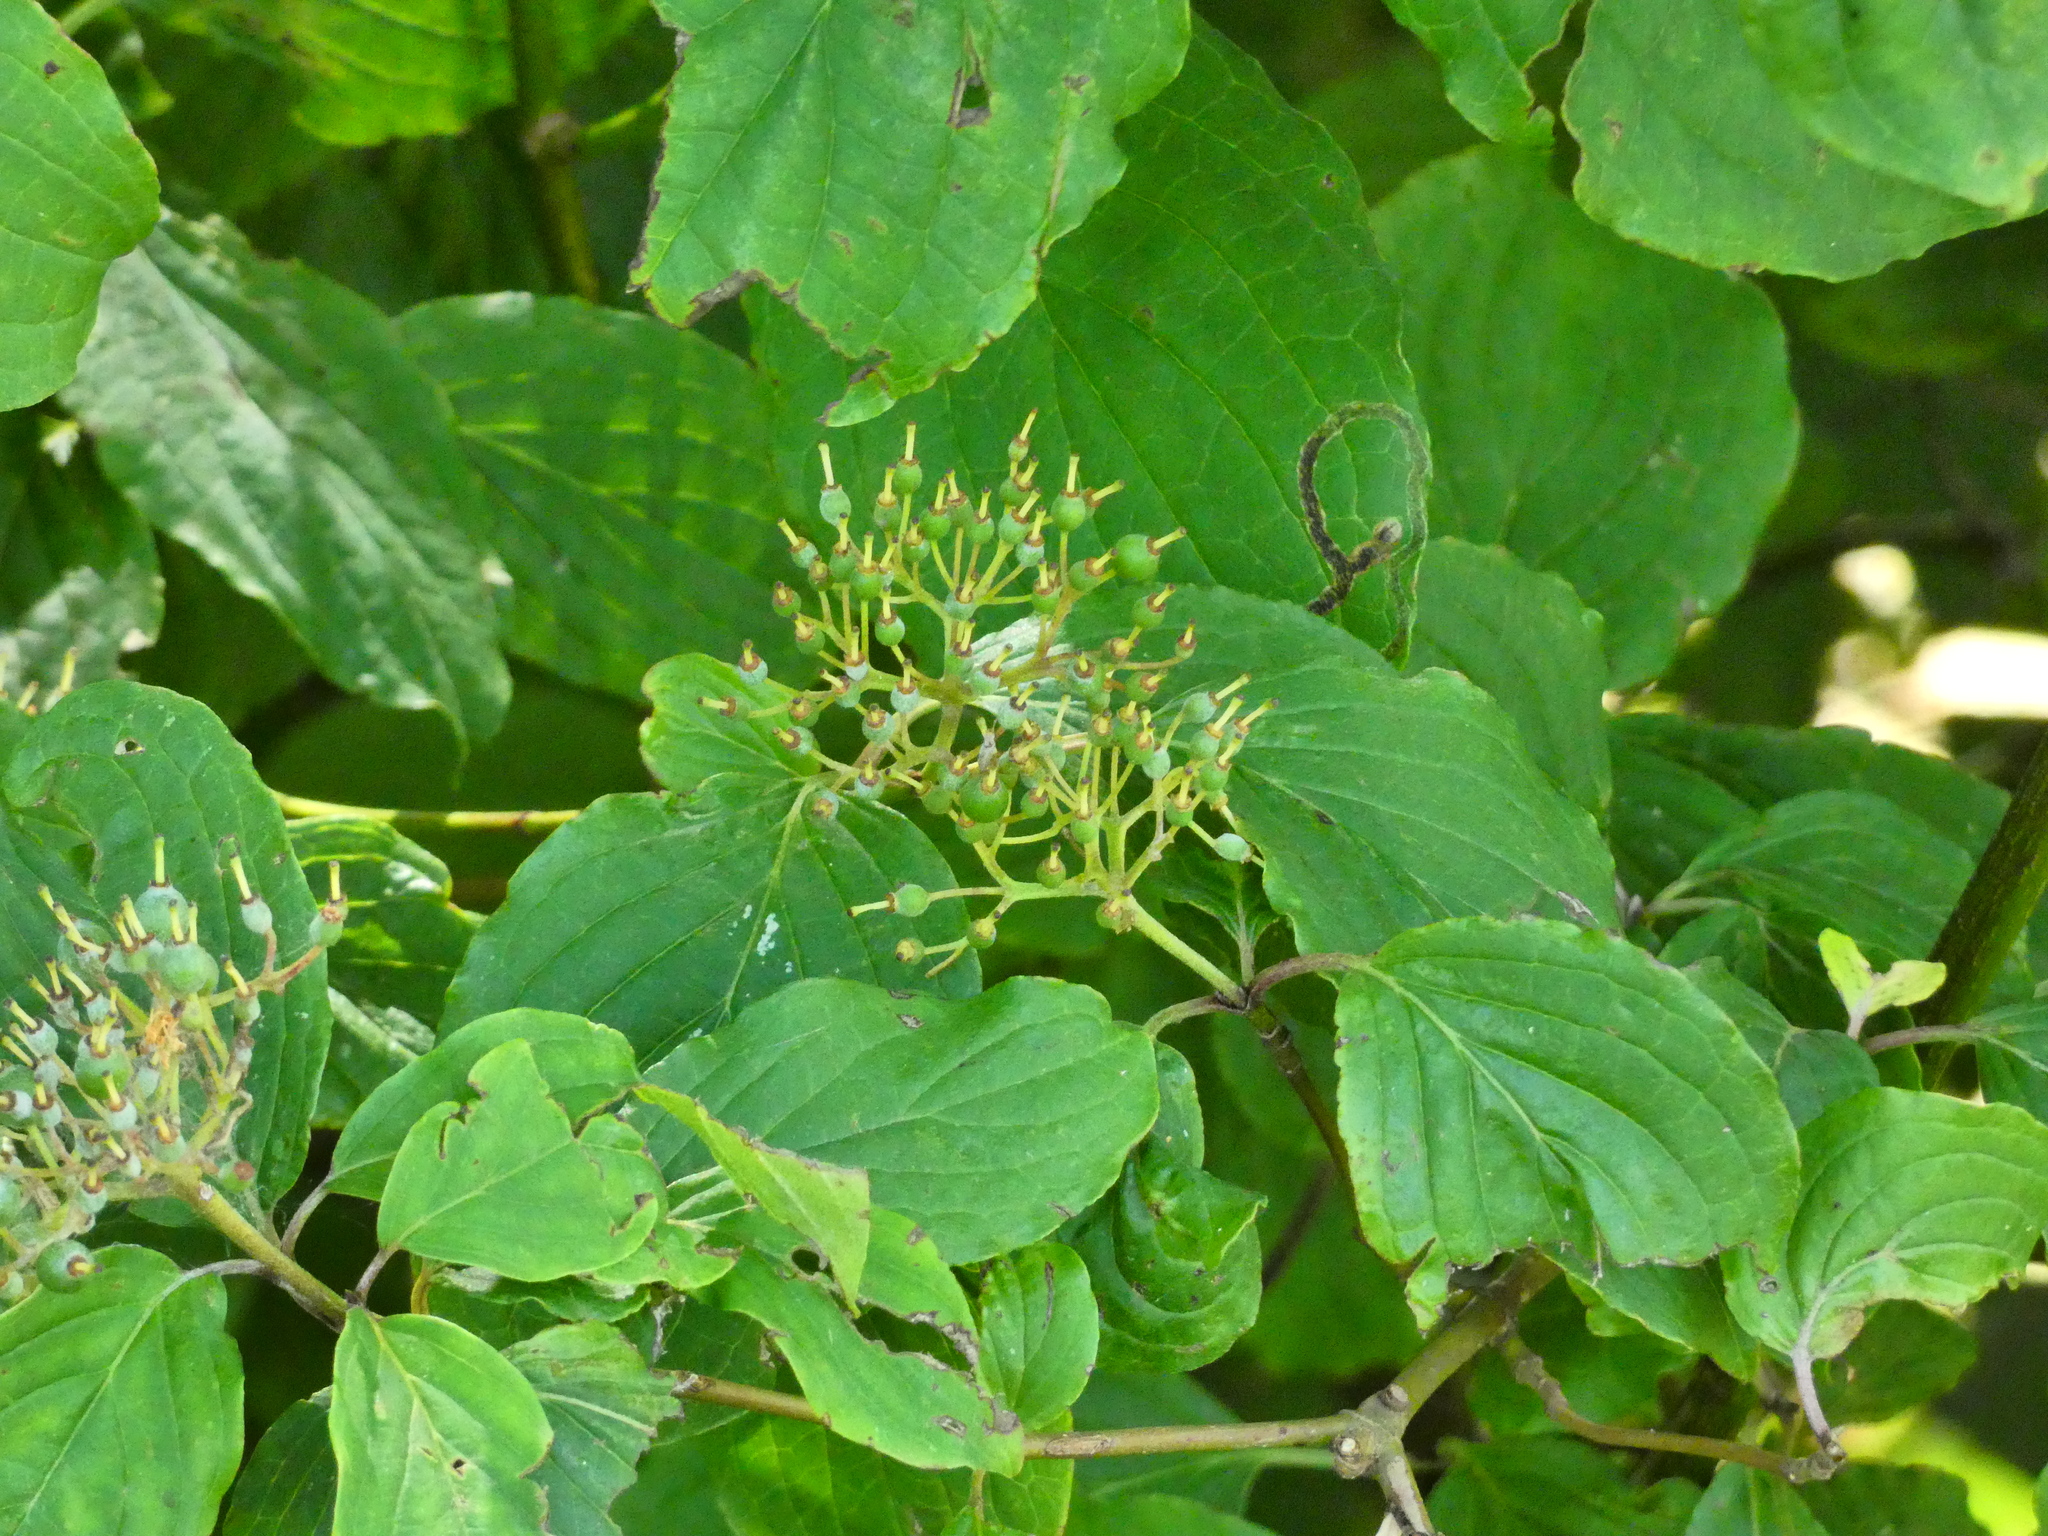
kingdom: Plantae
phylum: Tracheophyta
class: Magnoliopsida
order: Cornales
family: Cornaceae
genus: Cornus
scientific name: Cornus sanguinea
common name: Dogwood
